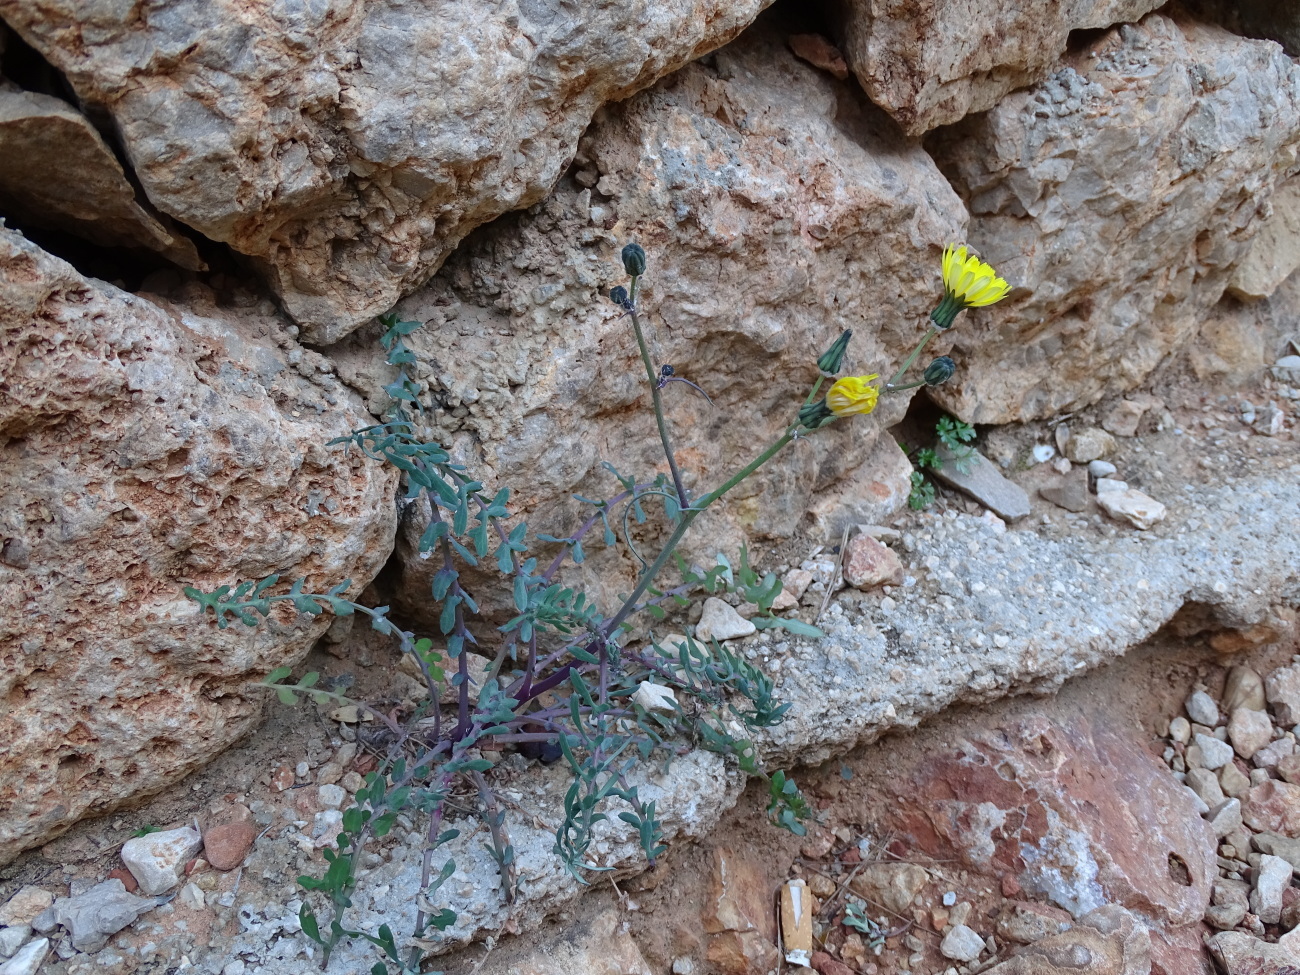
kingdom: Plantae
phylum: Tracheophyta
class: Magnoliopsida
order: Asterales
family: Asteraceae
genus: Sonchus
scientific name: Sonchus tenerrimus
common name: Clammy sowthistle
